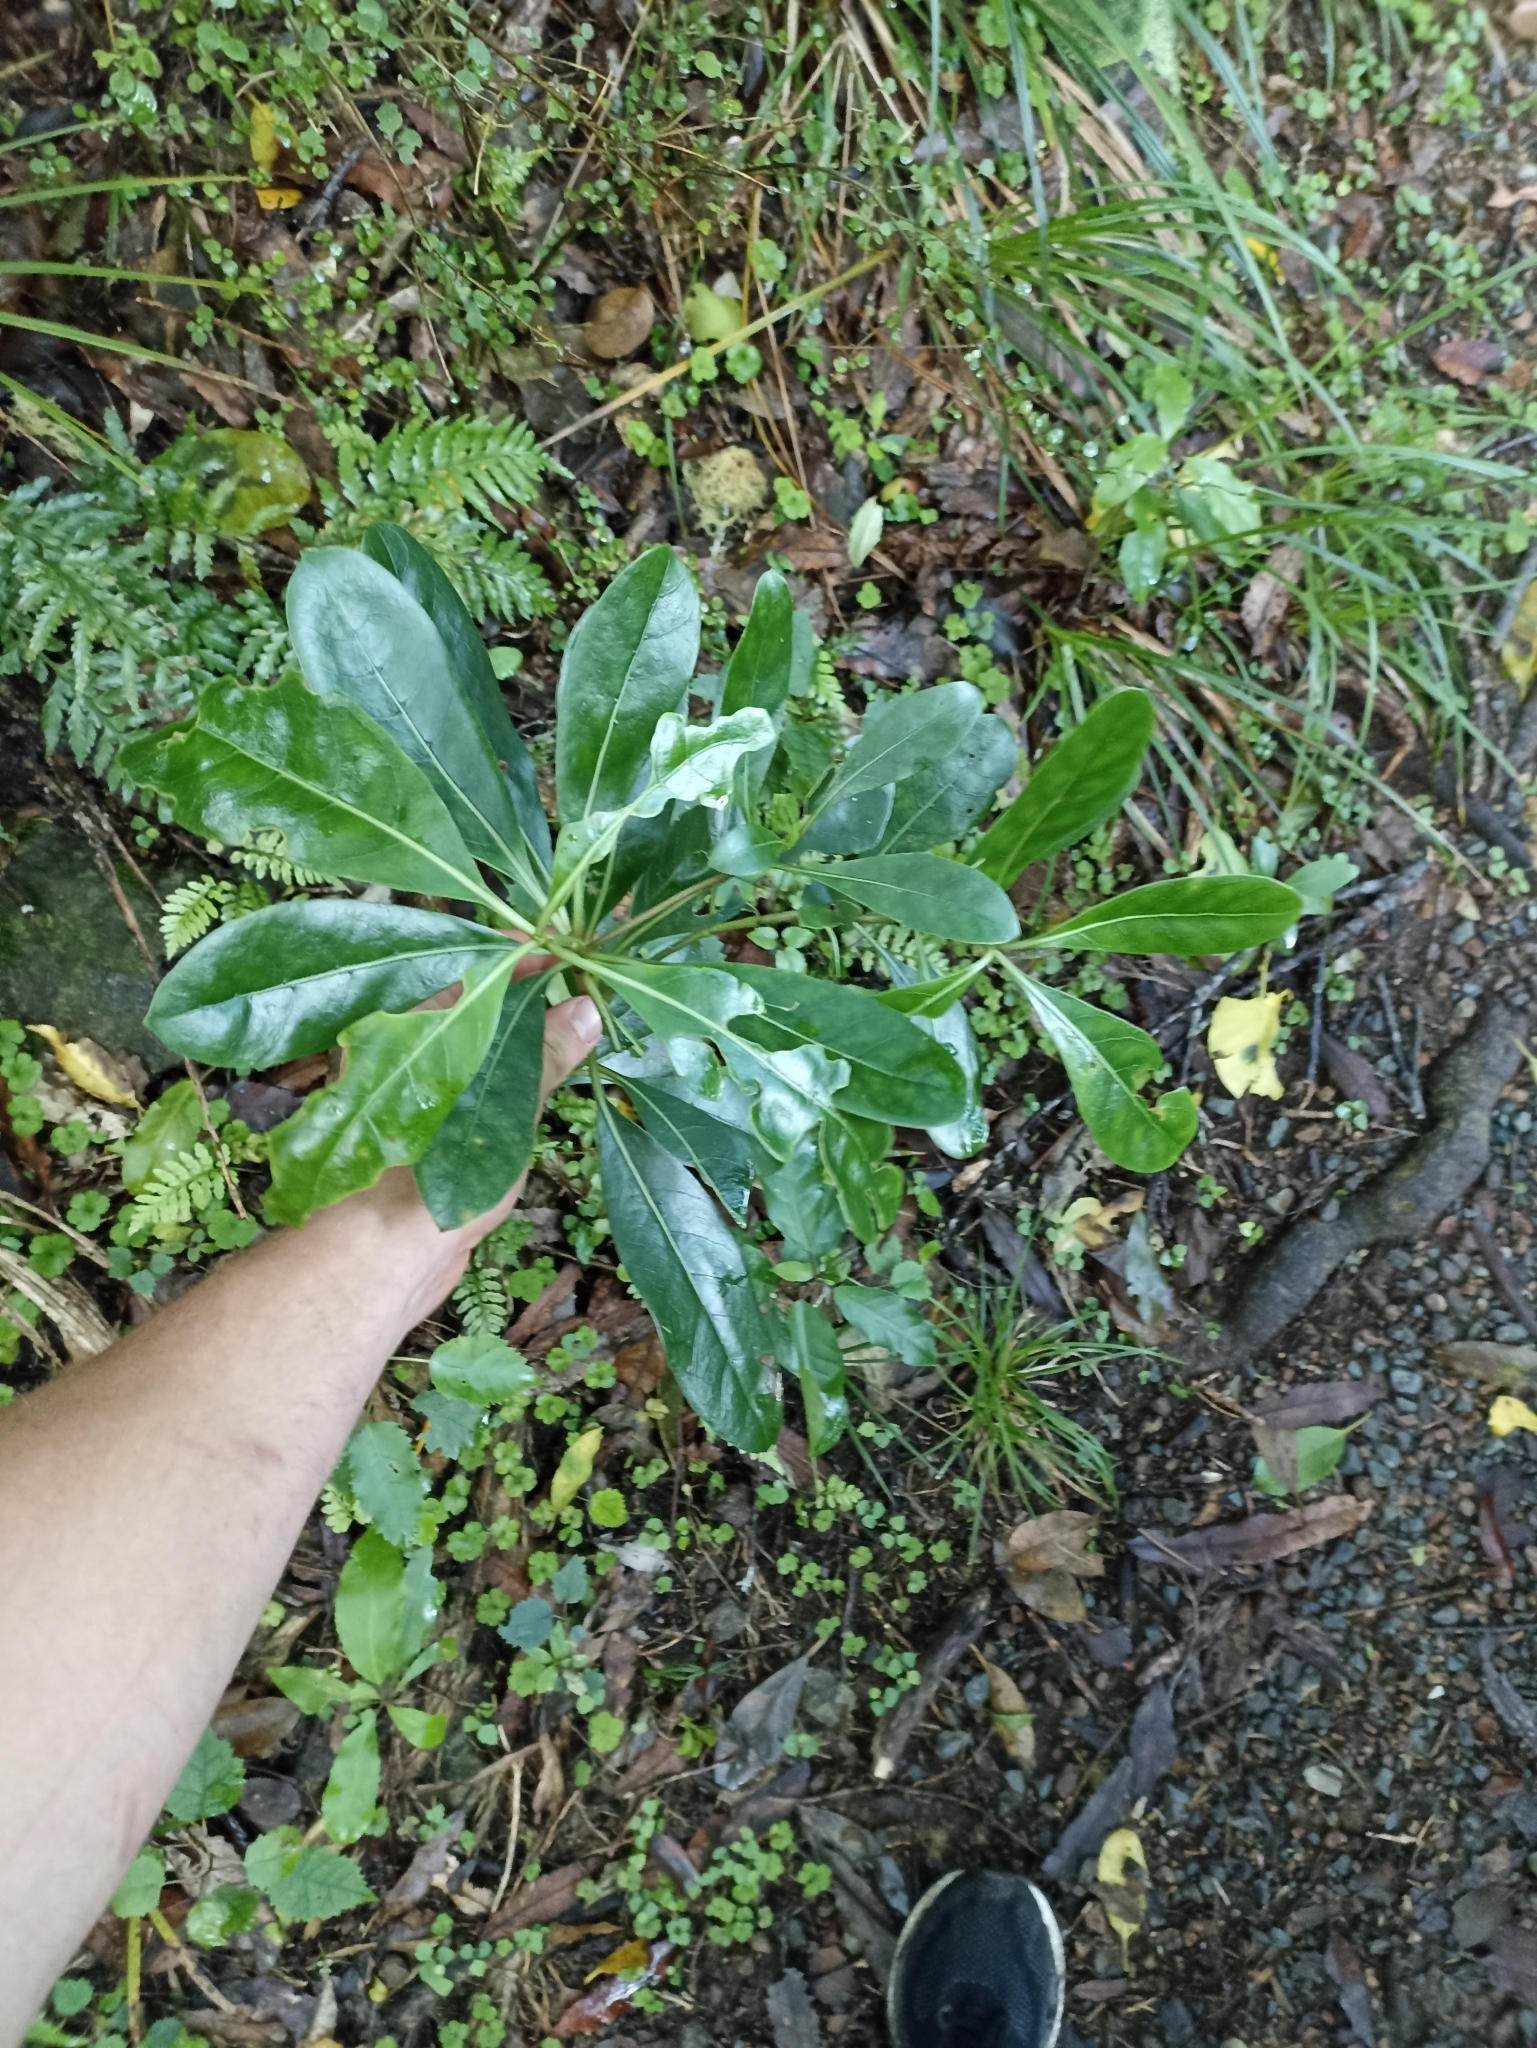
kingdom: Plantae
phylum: Tracheophyta
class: Magnoliopsida
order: Gentianales
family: Rubiaceae
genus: Coprosma
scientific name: Coprosma lucida
